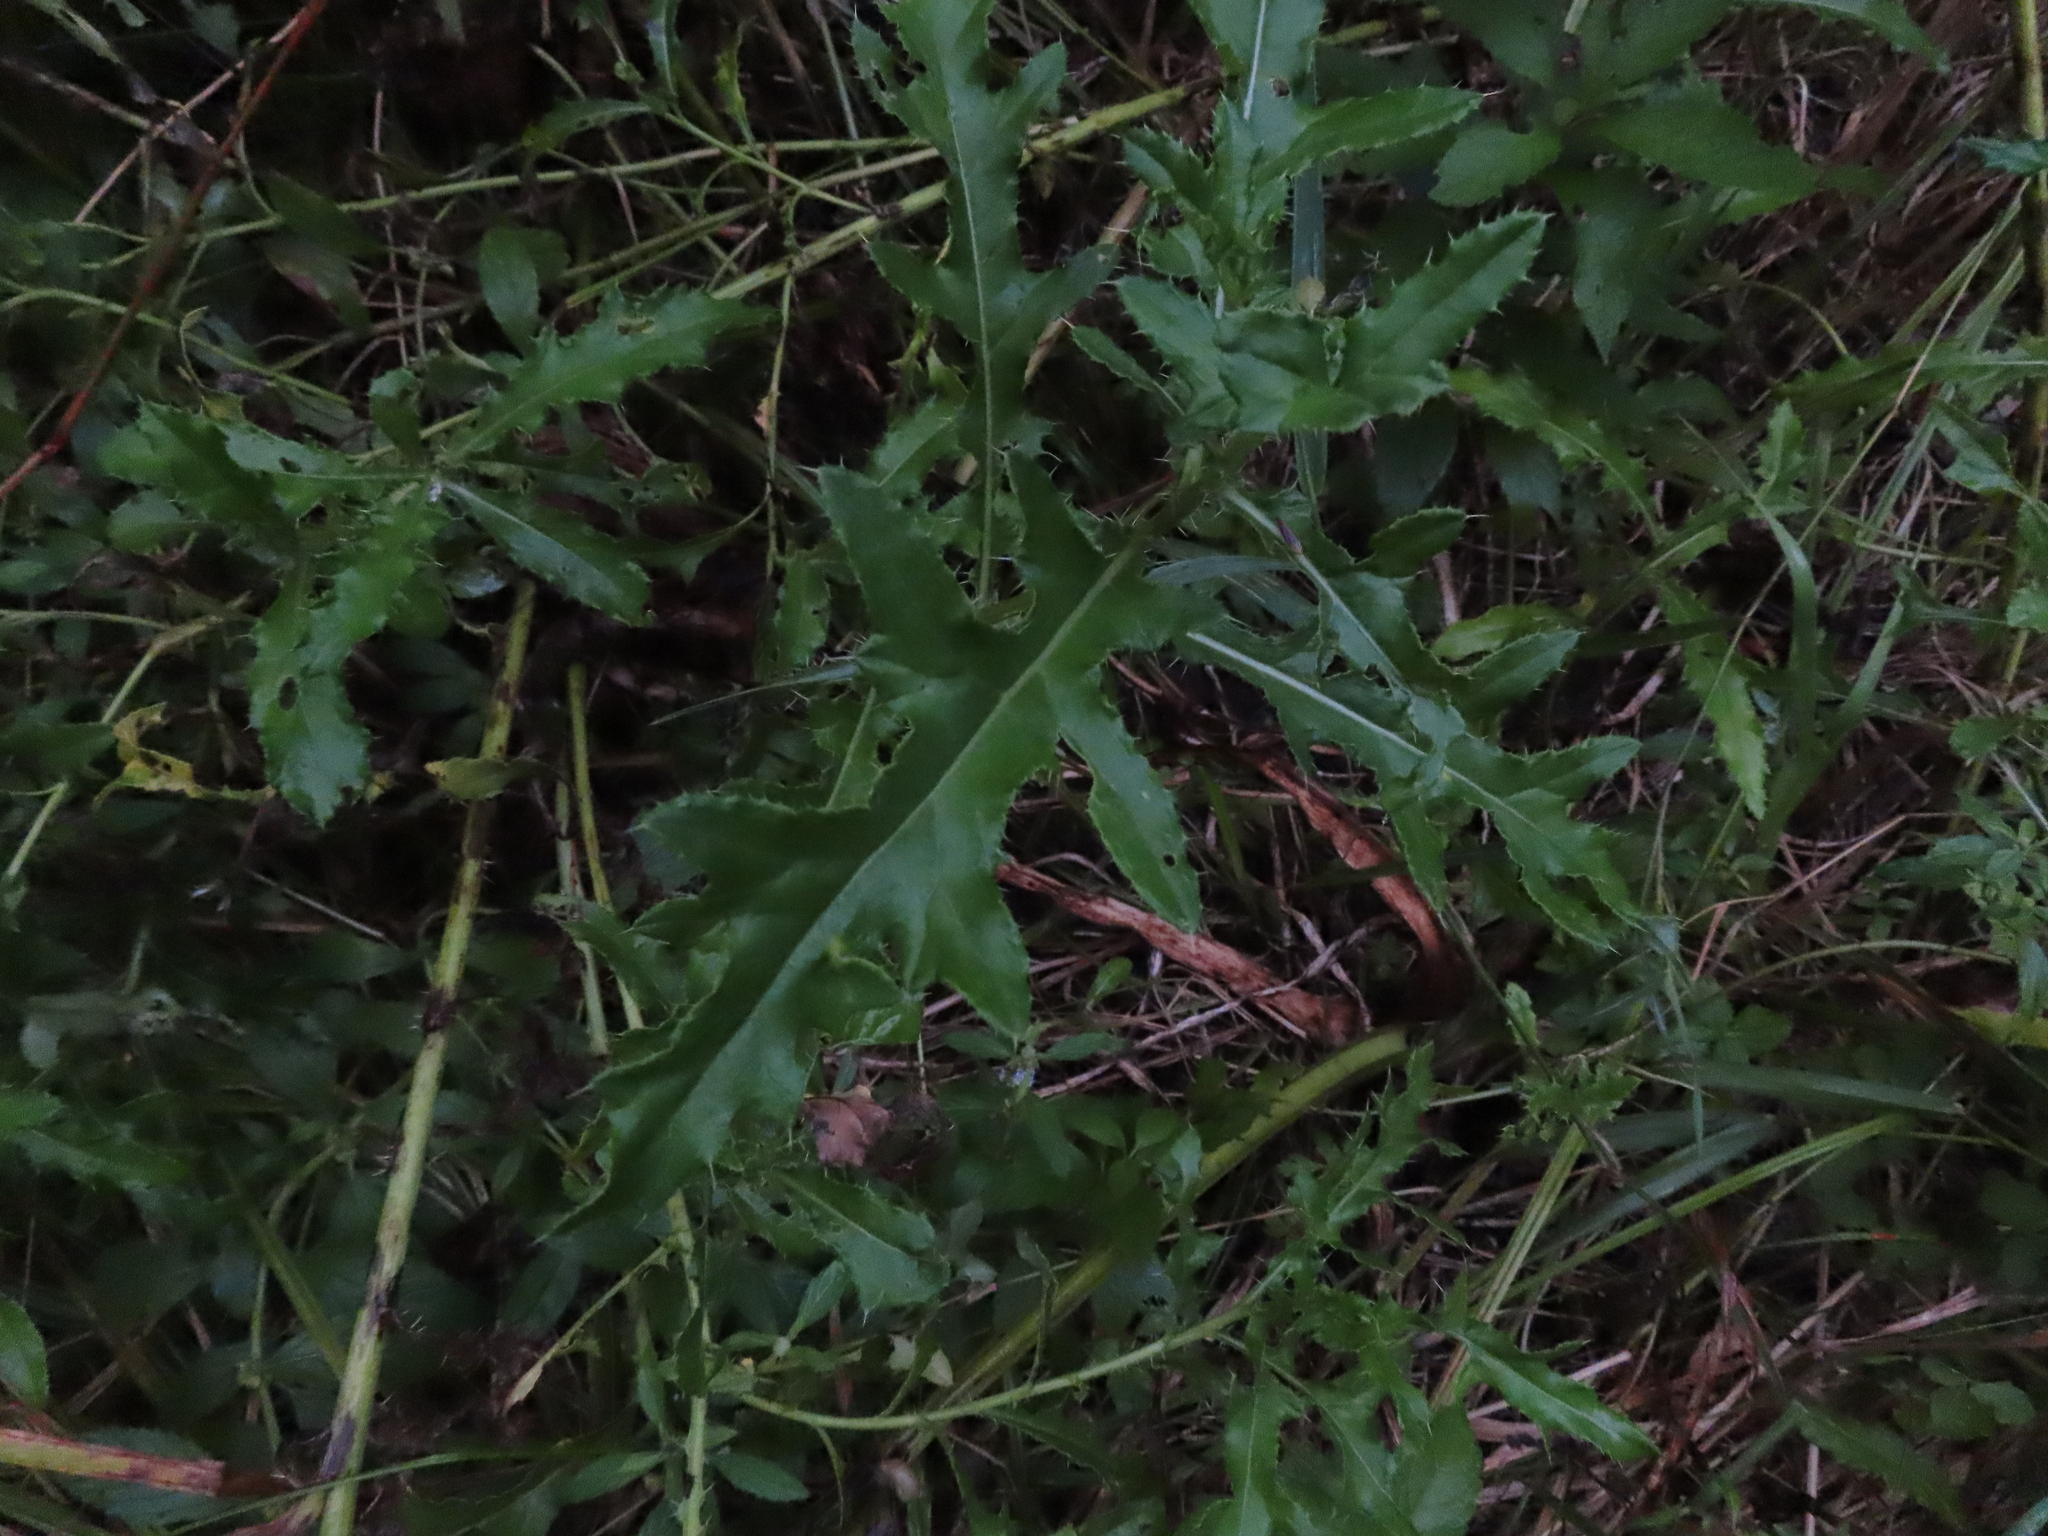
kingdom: Plantae
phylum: Tracheophyta
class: Magnoliopsida
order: Asterales
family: Asteraceae
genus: Cirsium
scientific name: Cirsium arvense
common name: Creeping thistle
